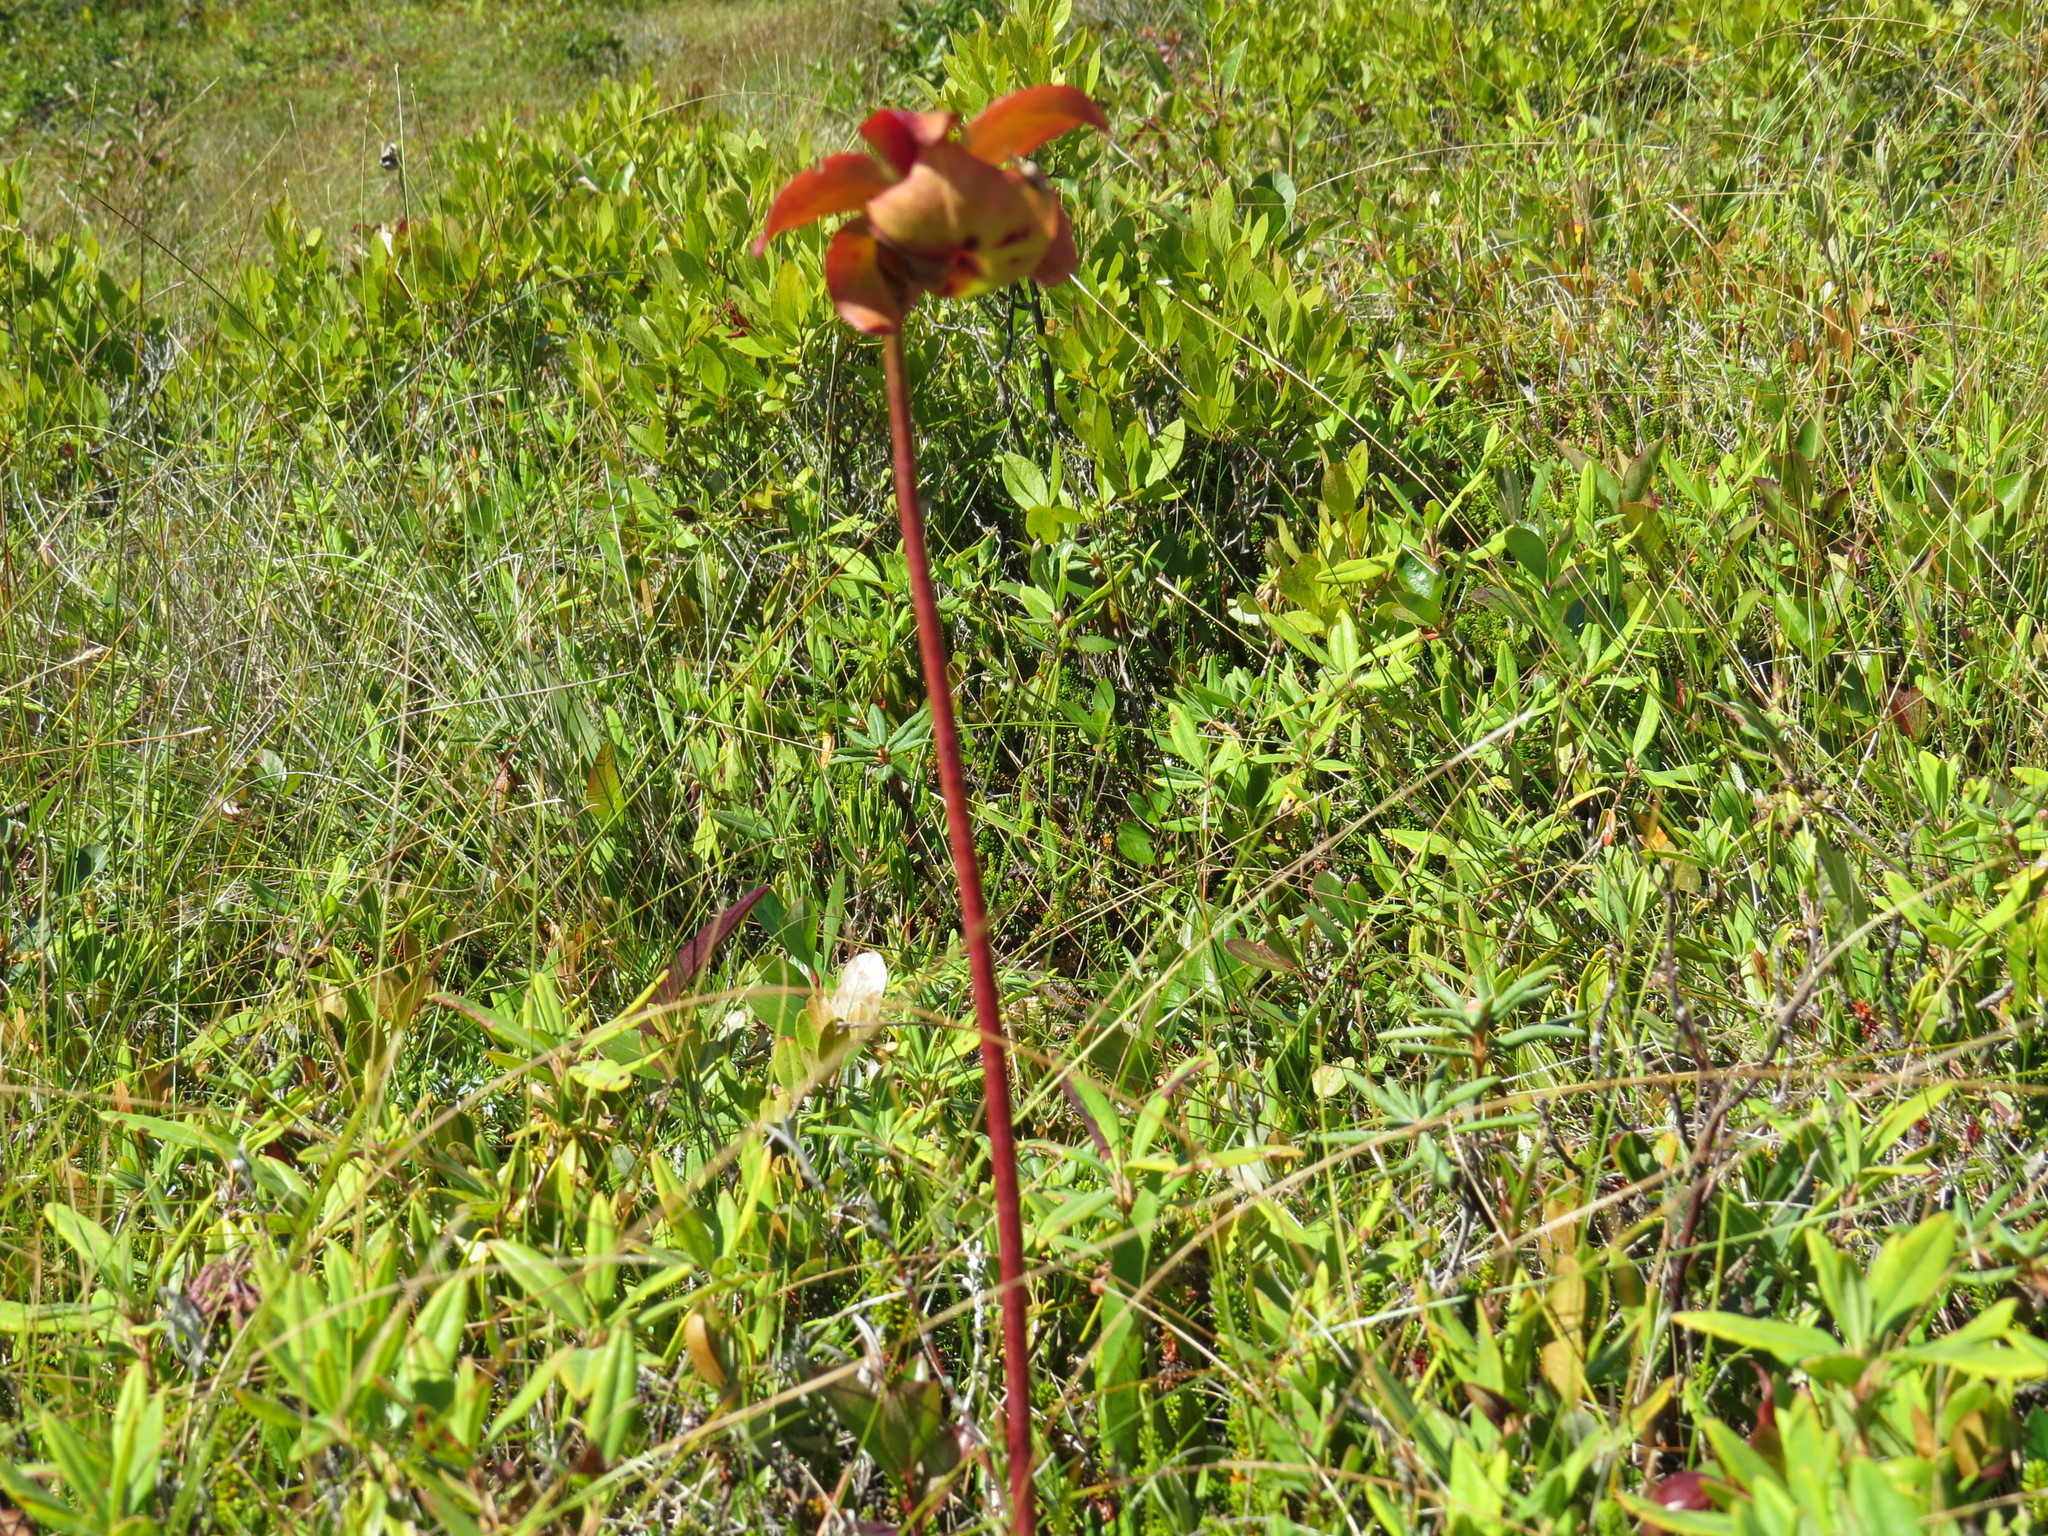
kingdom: Plantae
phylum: Tracheophyta
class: Magnoliopsida
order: Ericales
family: Sarraceniaceae
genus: Sarracenia
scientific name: Sarracenia purpurea
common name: Pitcherplant
